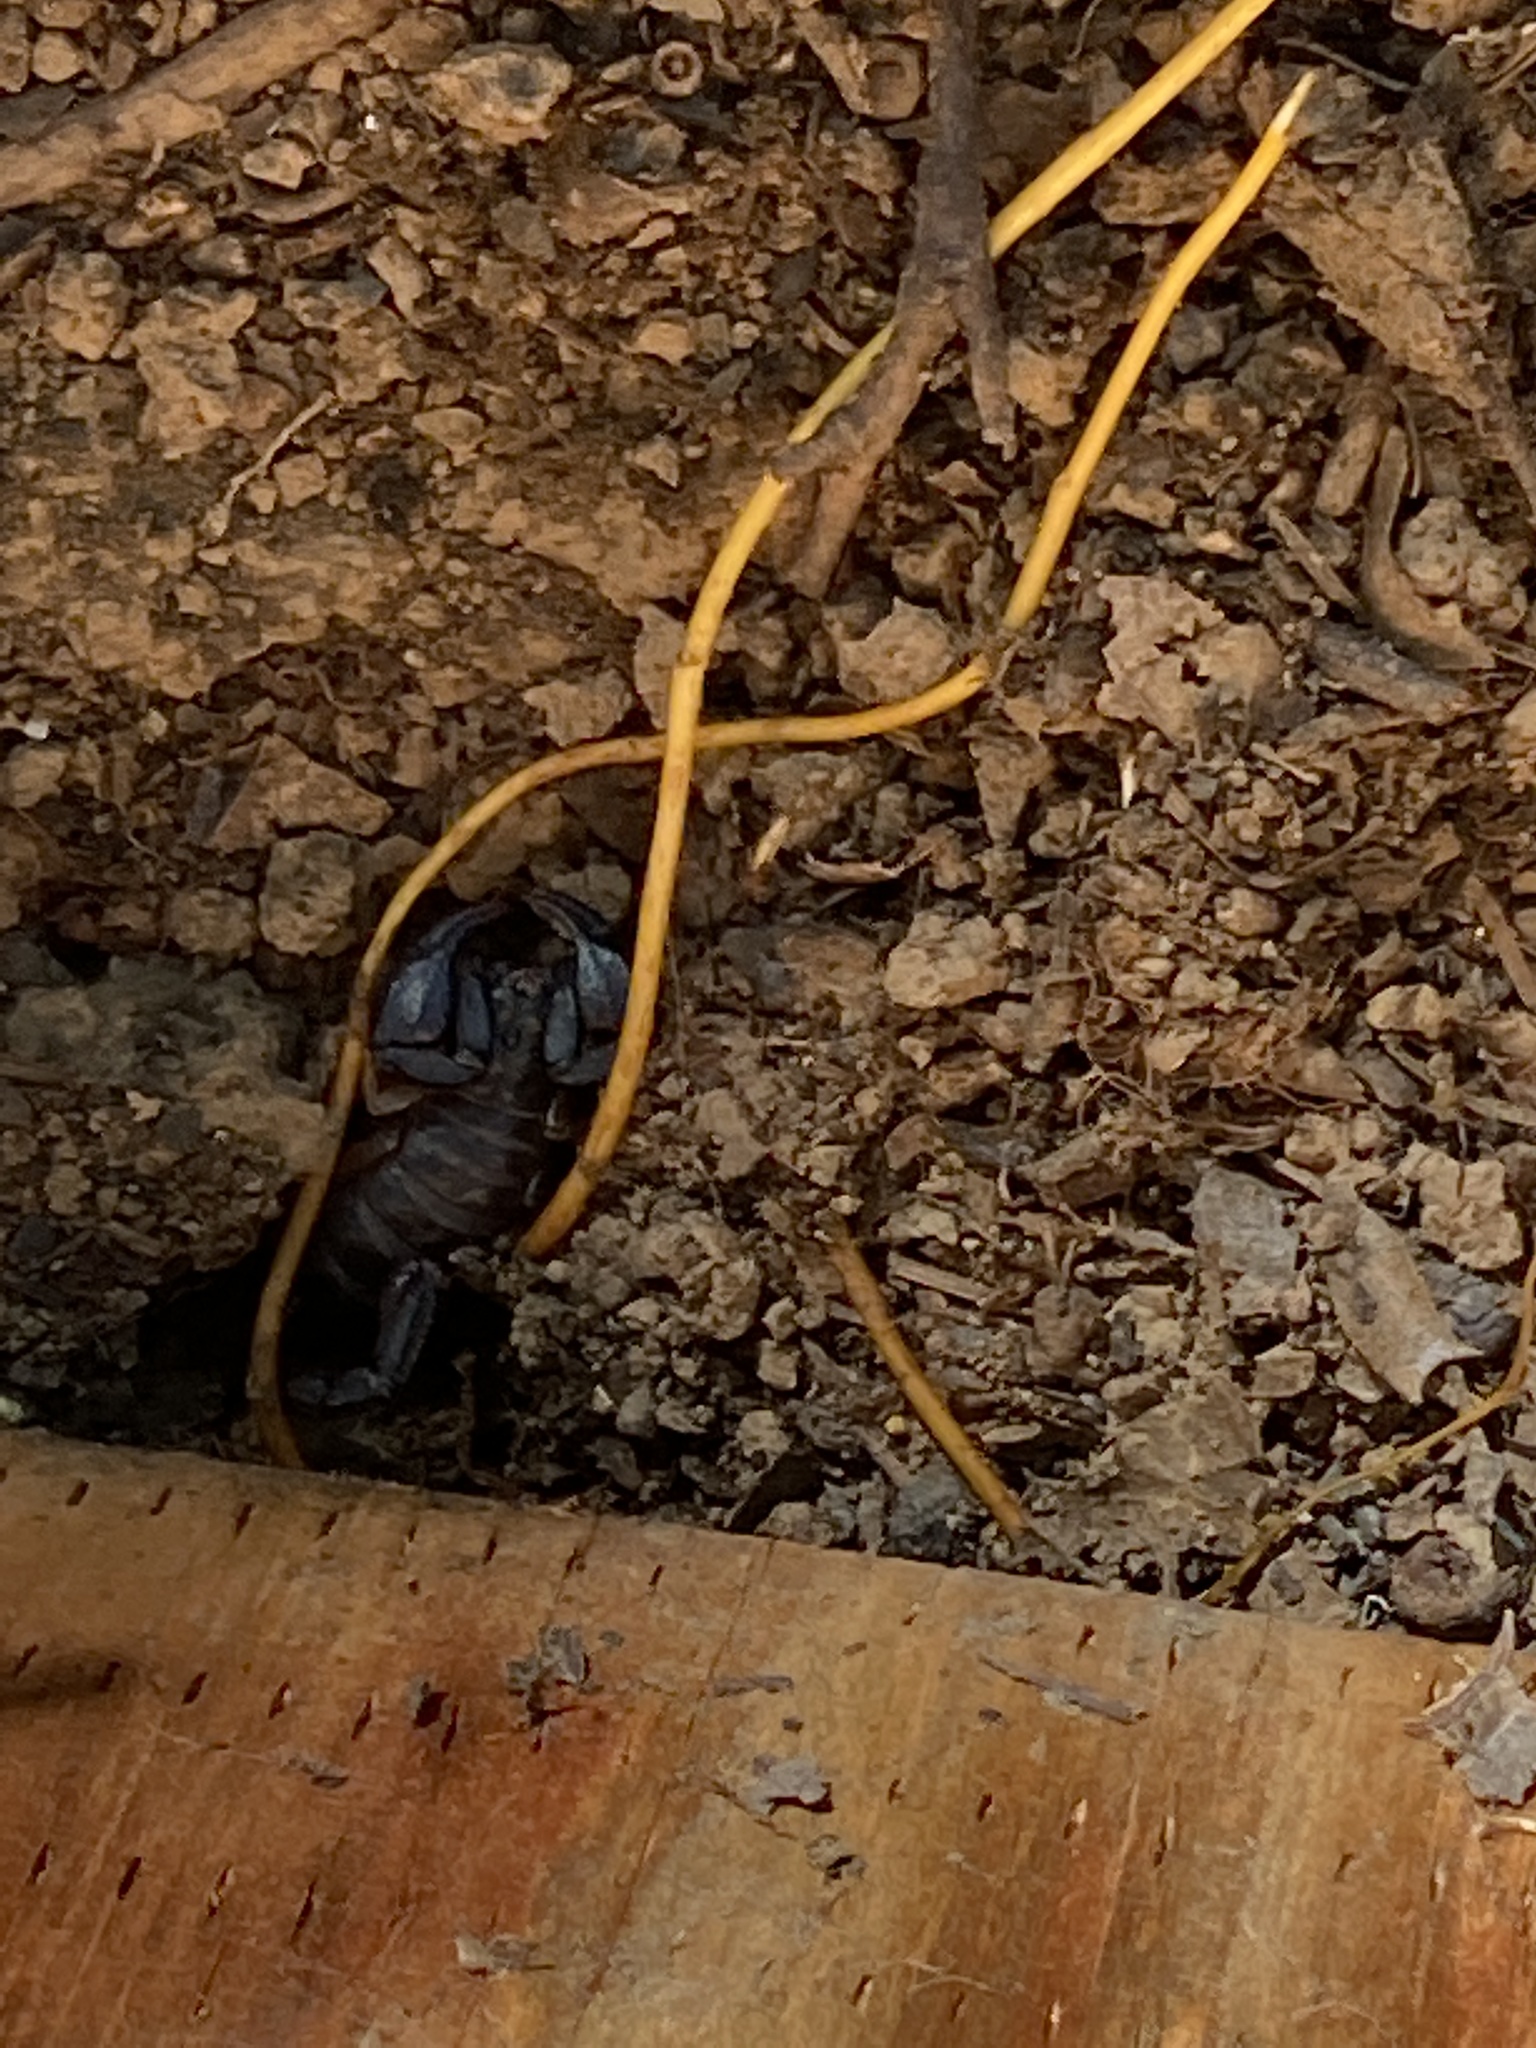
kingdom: Animalia
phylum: Arthropoda
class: Arachnida
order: Scorpiones
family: Chactidae
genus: Uroctonus
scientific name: Uroctonus mordax
